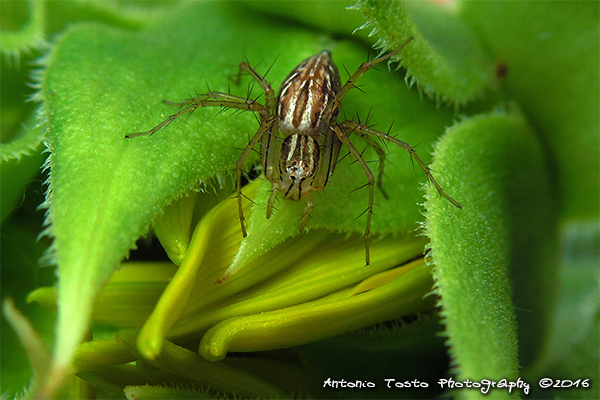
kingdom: Animalia
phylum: Arthropoda
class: Arachnida
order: Araneae
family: Oxyopidae
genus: Oxyopes
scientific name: Oxyopes crewi
